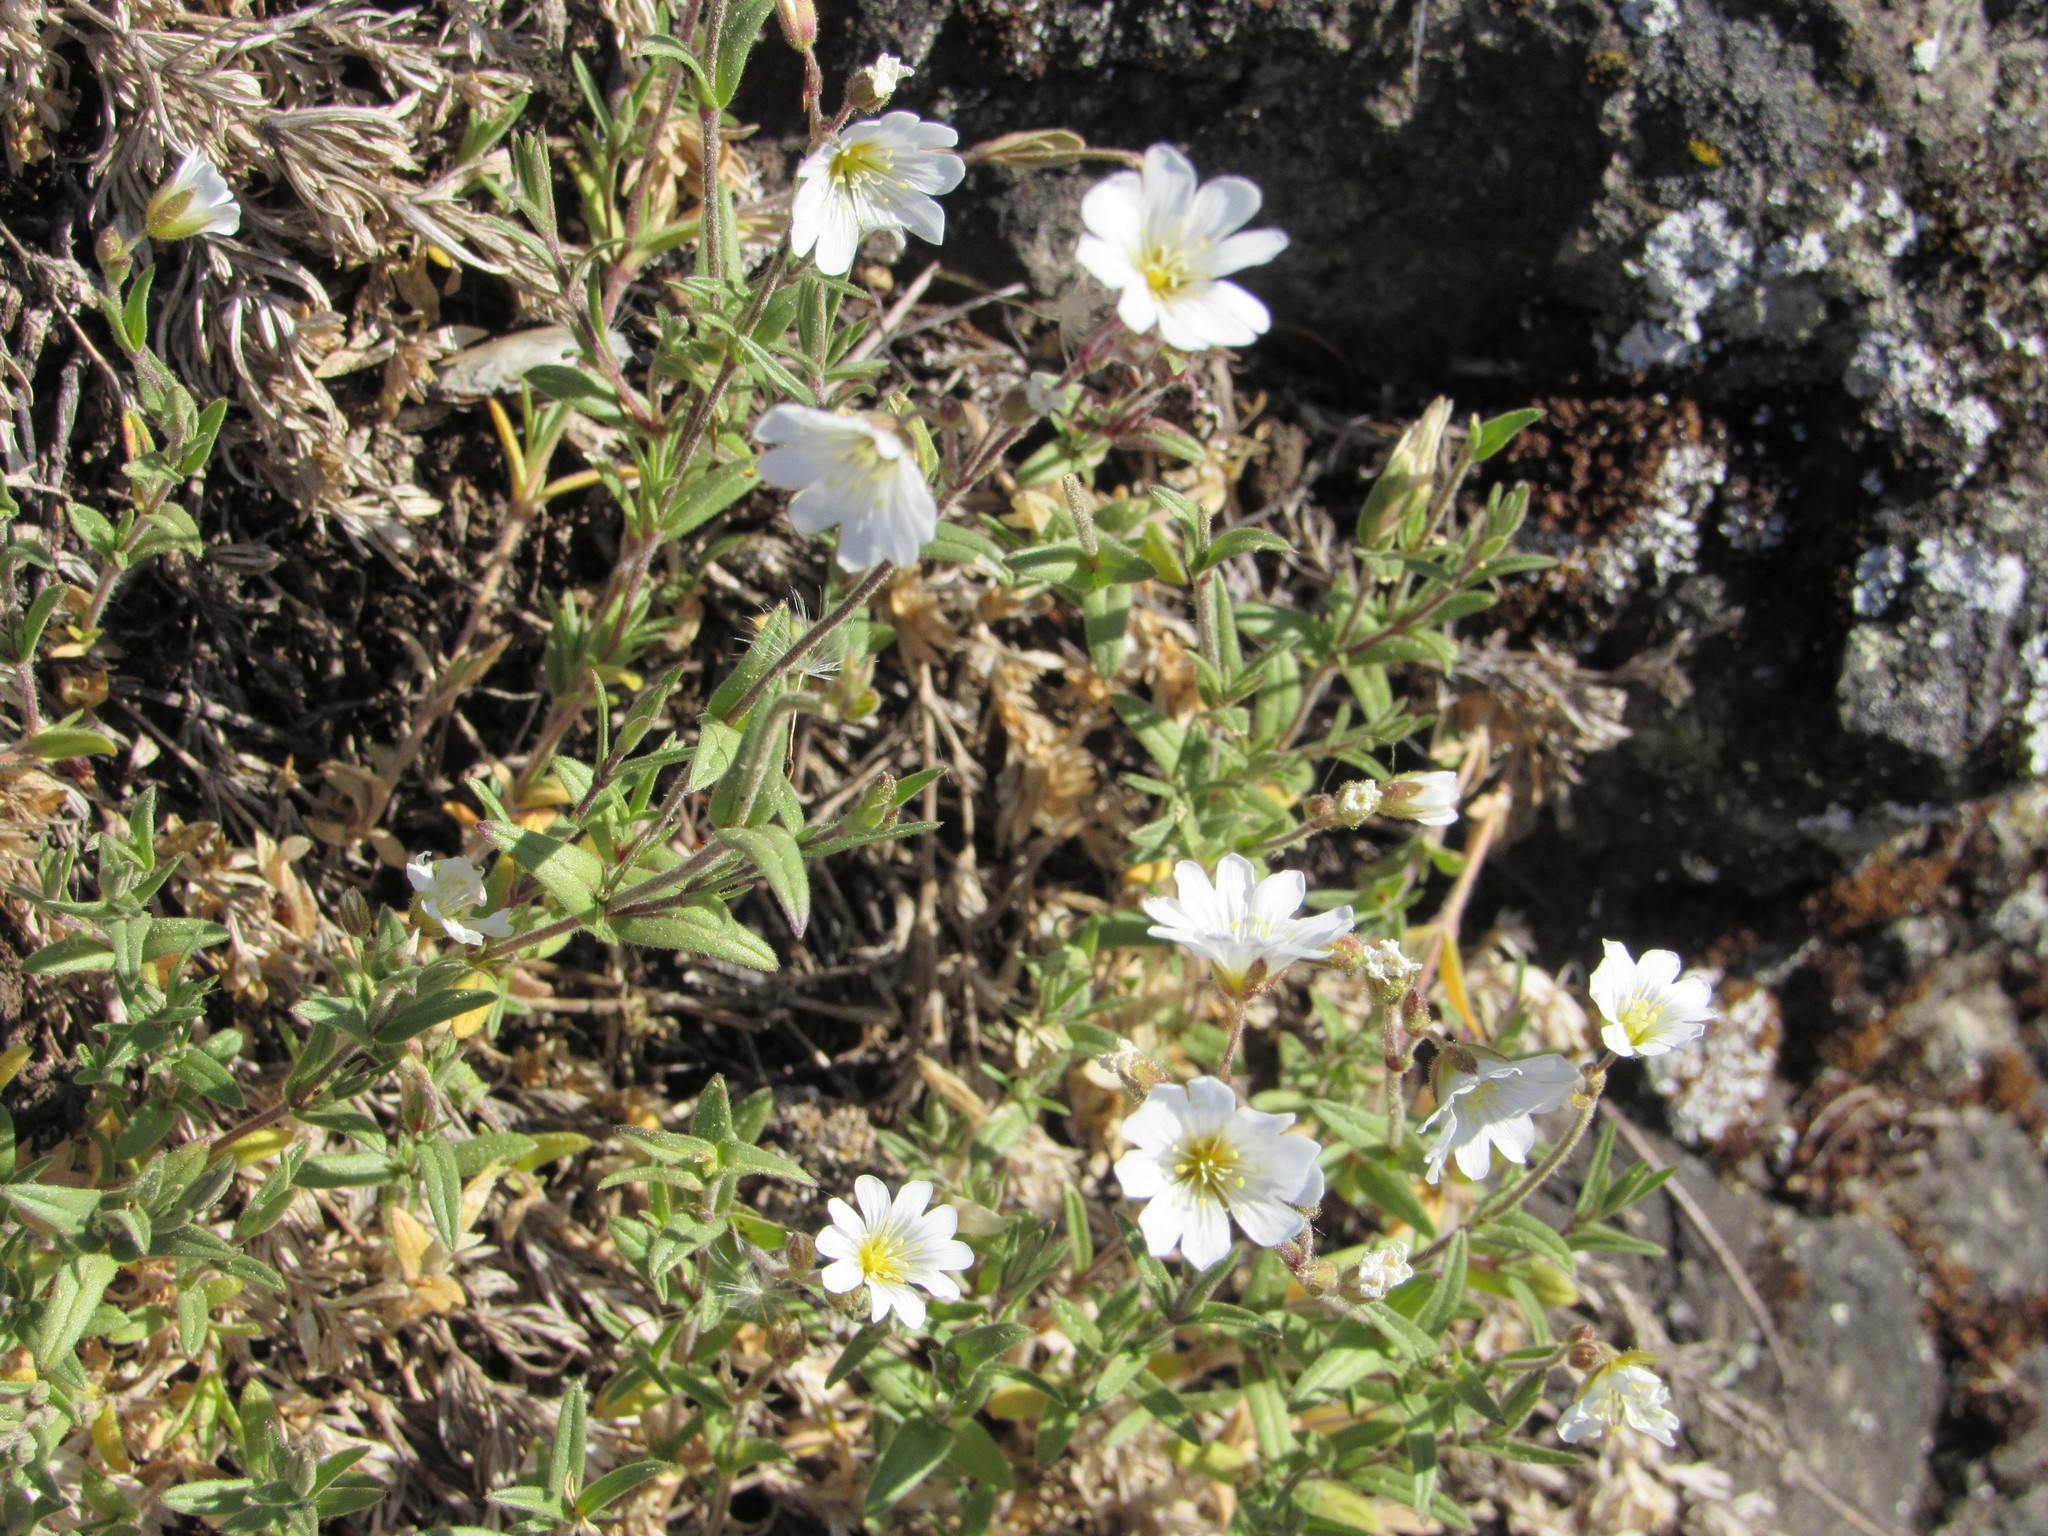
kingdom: Plantae
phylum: Tracheophyta
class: Magnoliopsida
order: Caryophyllales
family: Caryophyllaceae
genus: Cerastium
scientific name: Cerastium arvense
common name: Field mouse-ear
